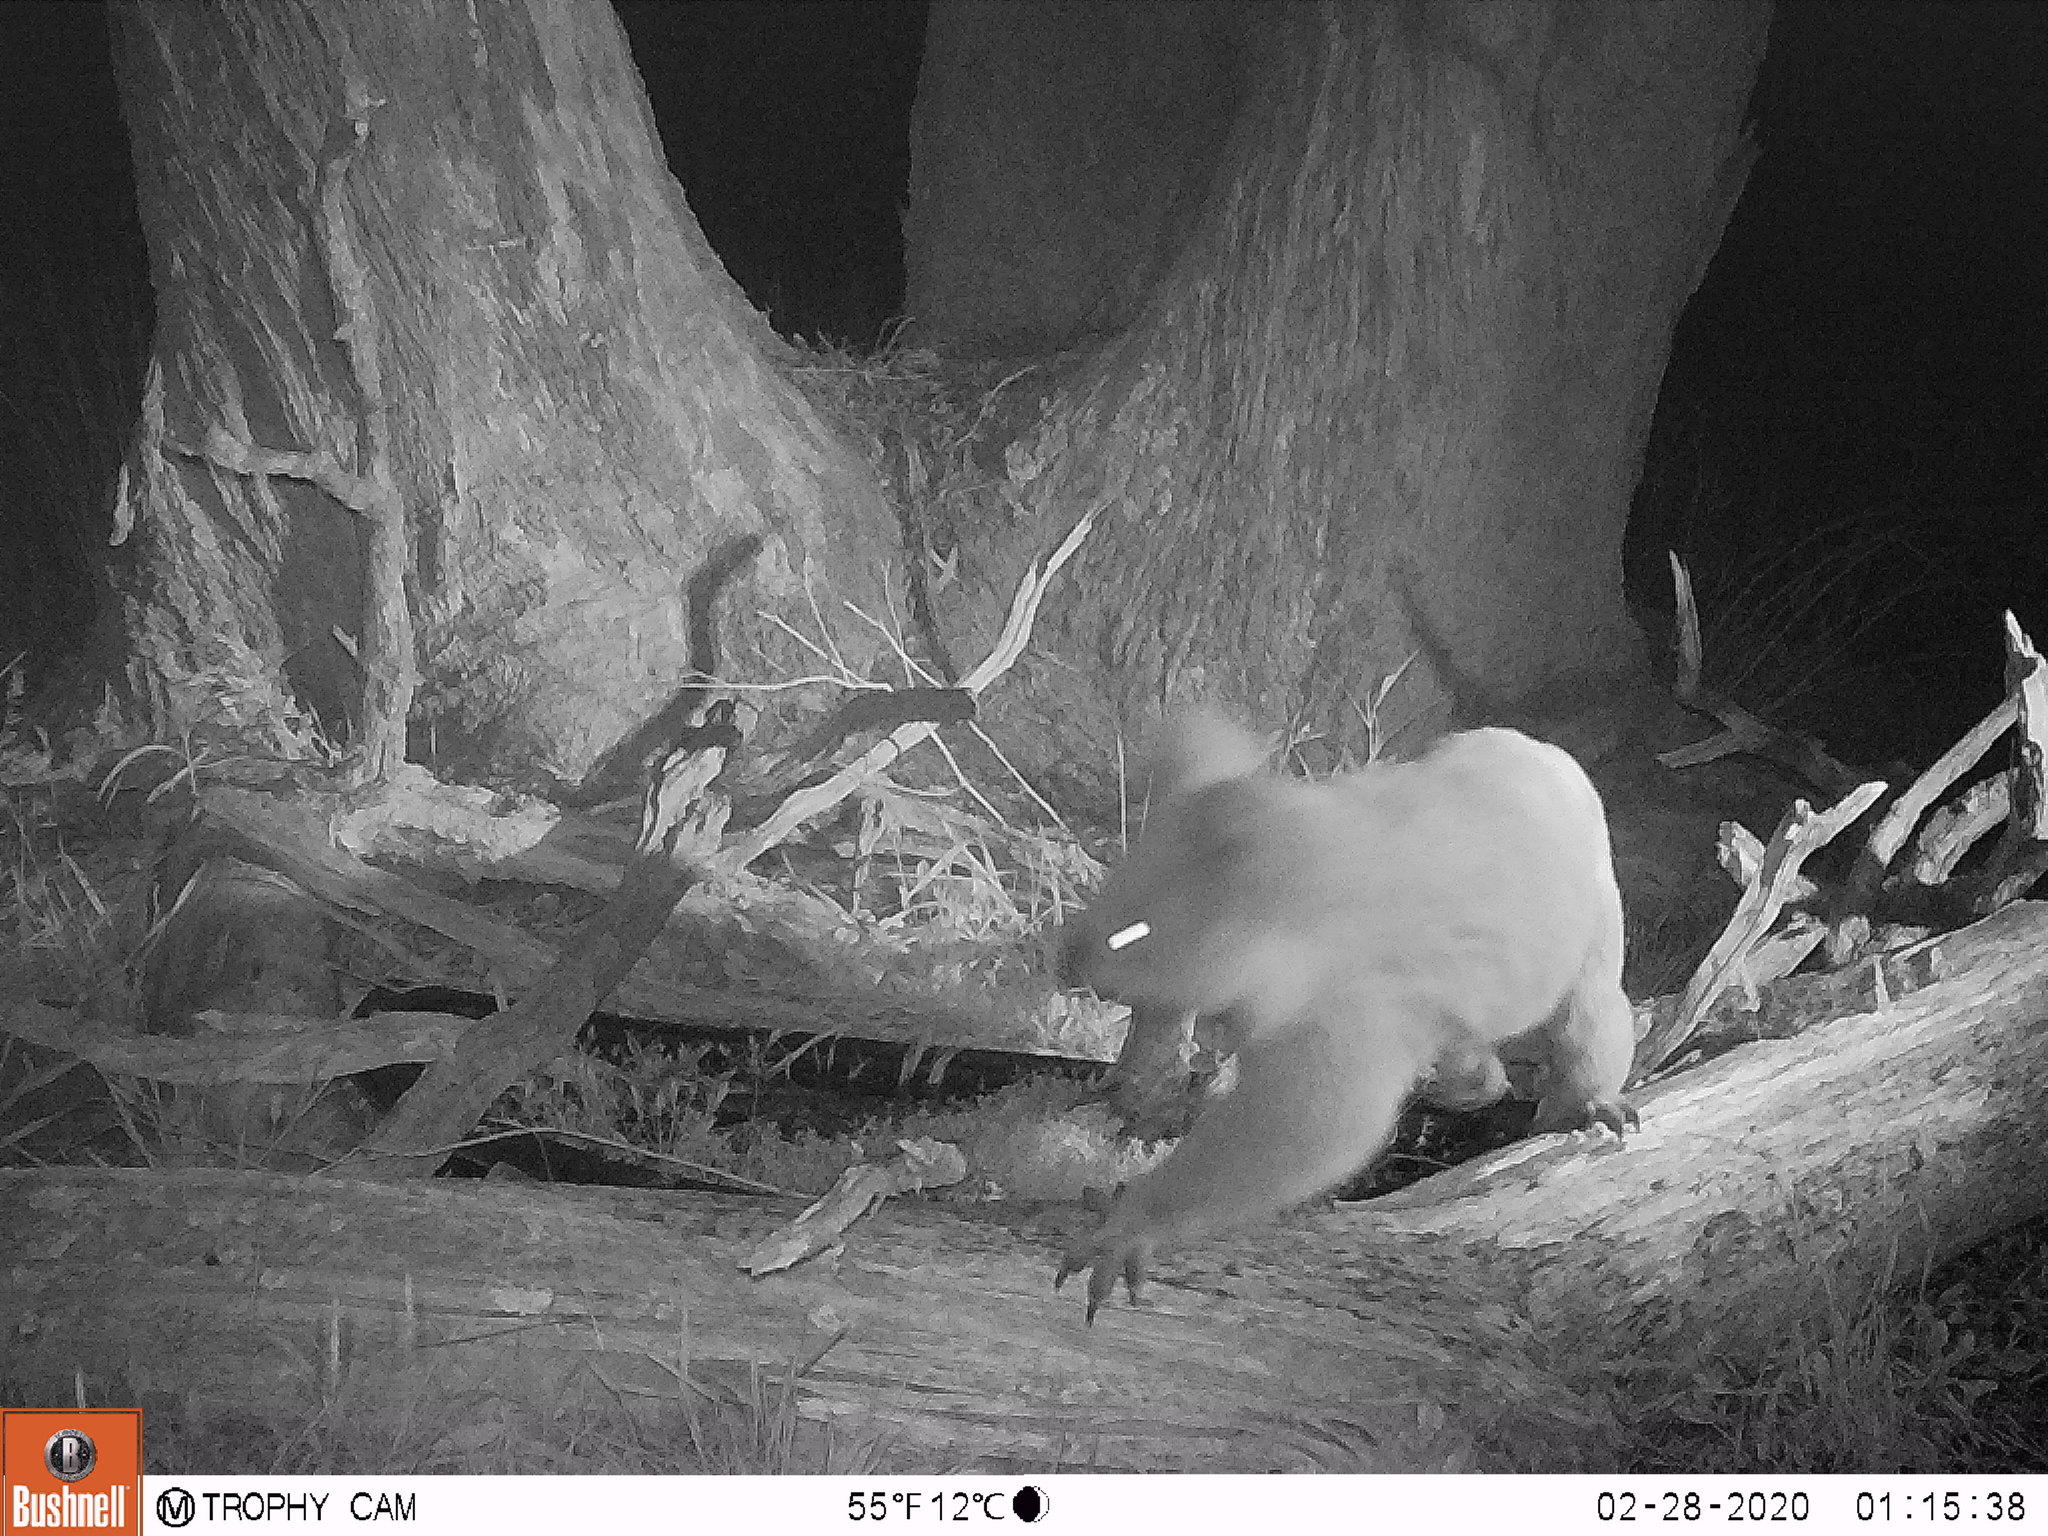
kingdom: Animalia
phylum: Chordata
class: Mammalia
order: Diprotodontia
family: Phascolarctidae
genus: Phascolarctos
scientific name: Phascolarctos cinereus
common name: Koala
